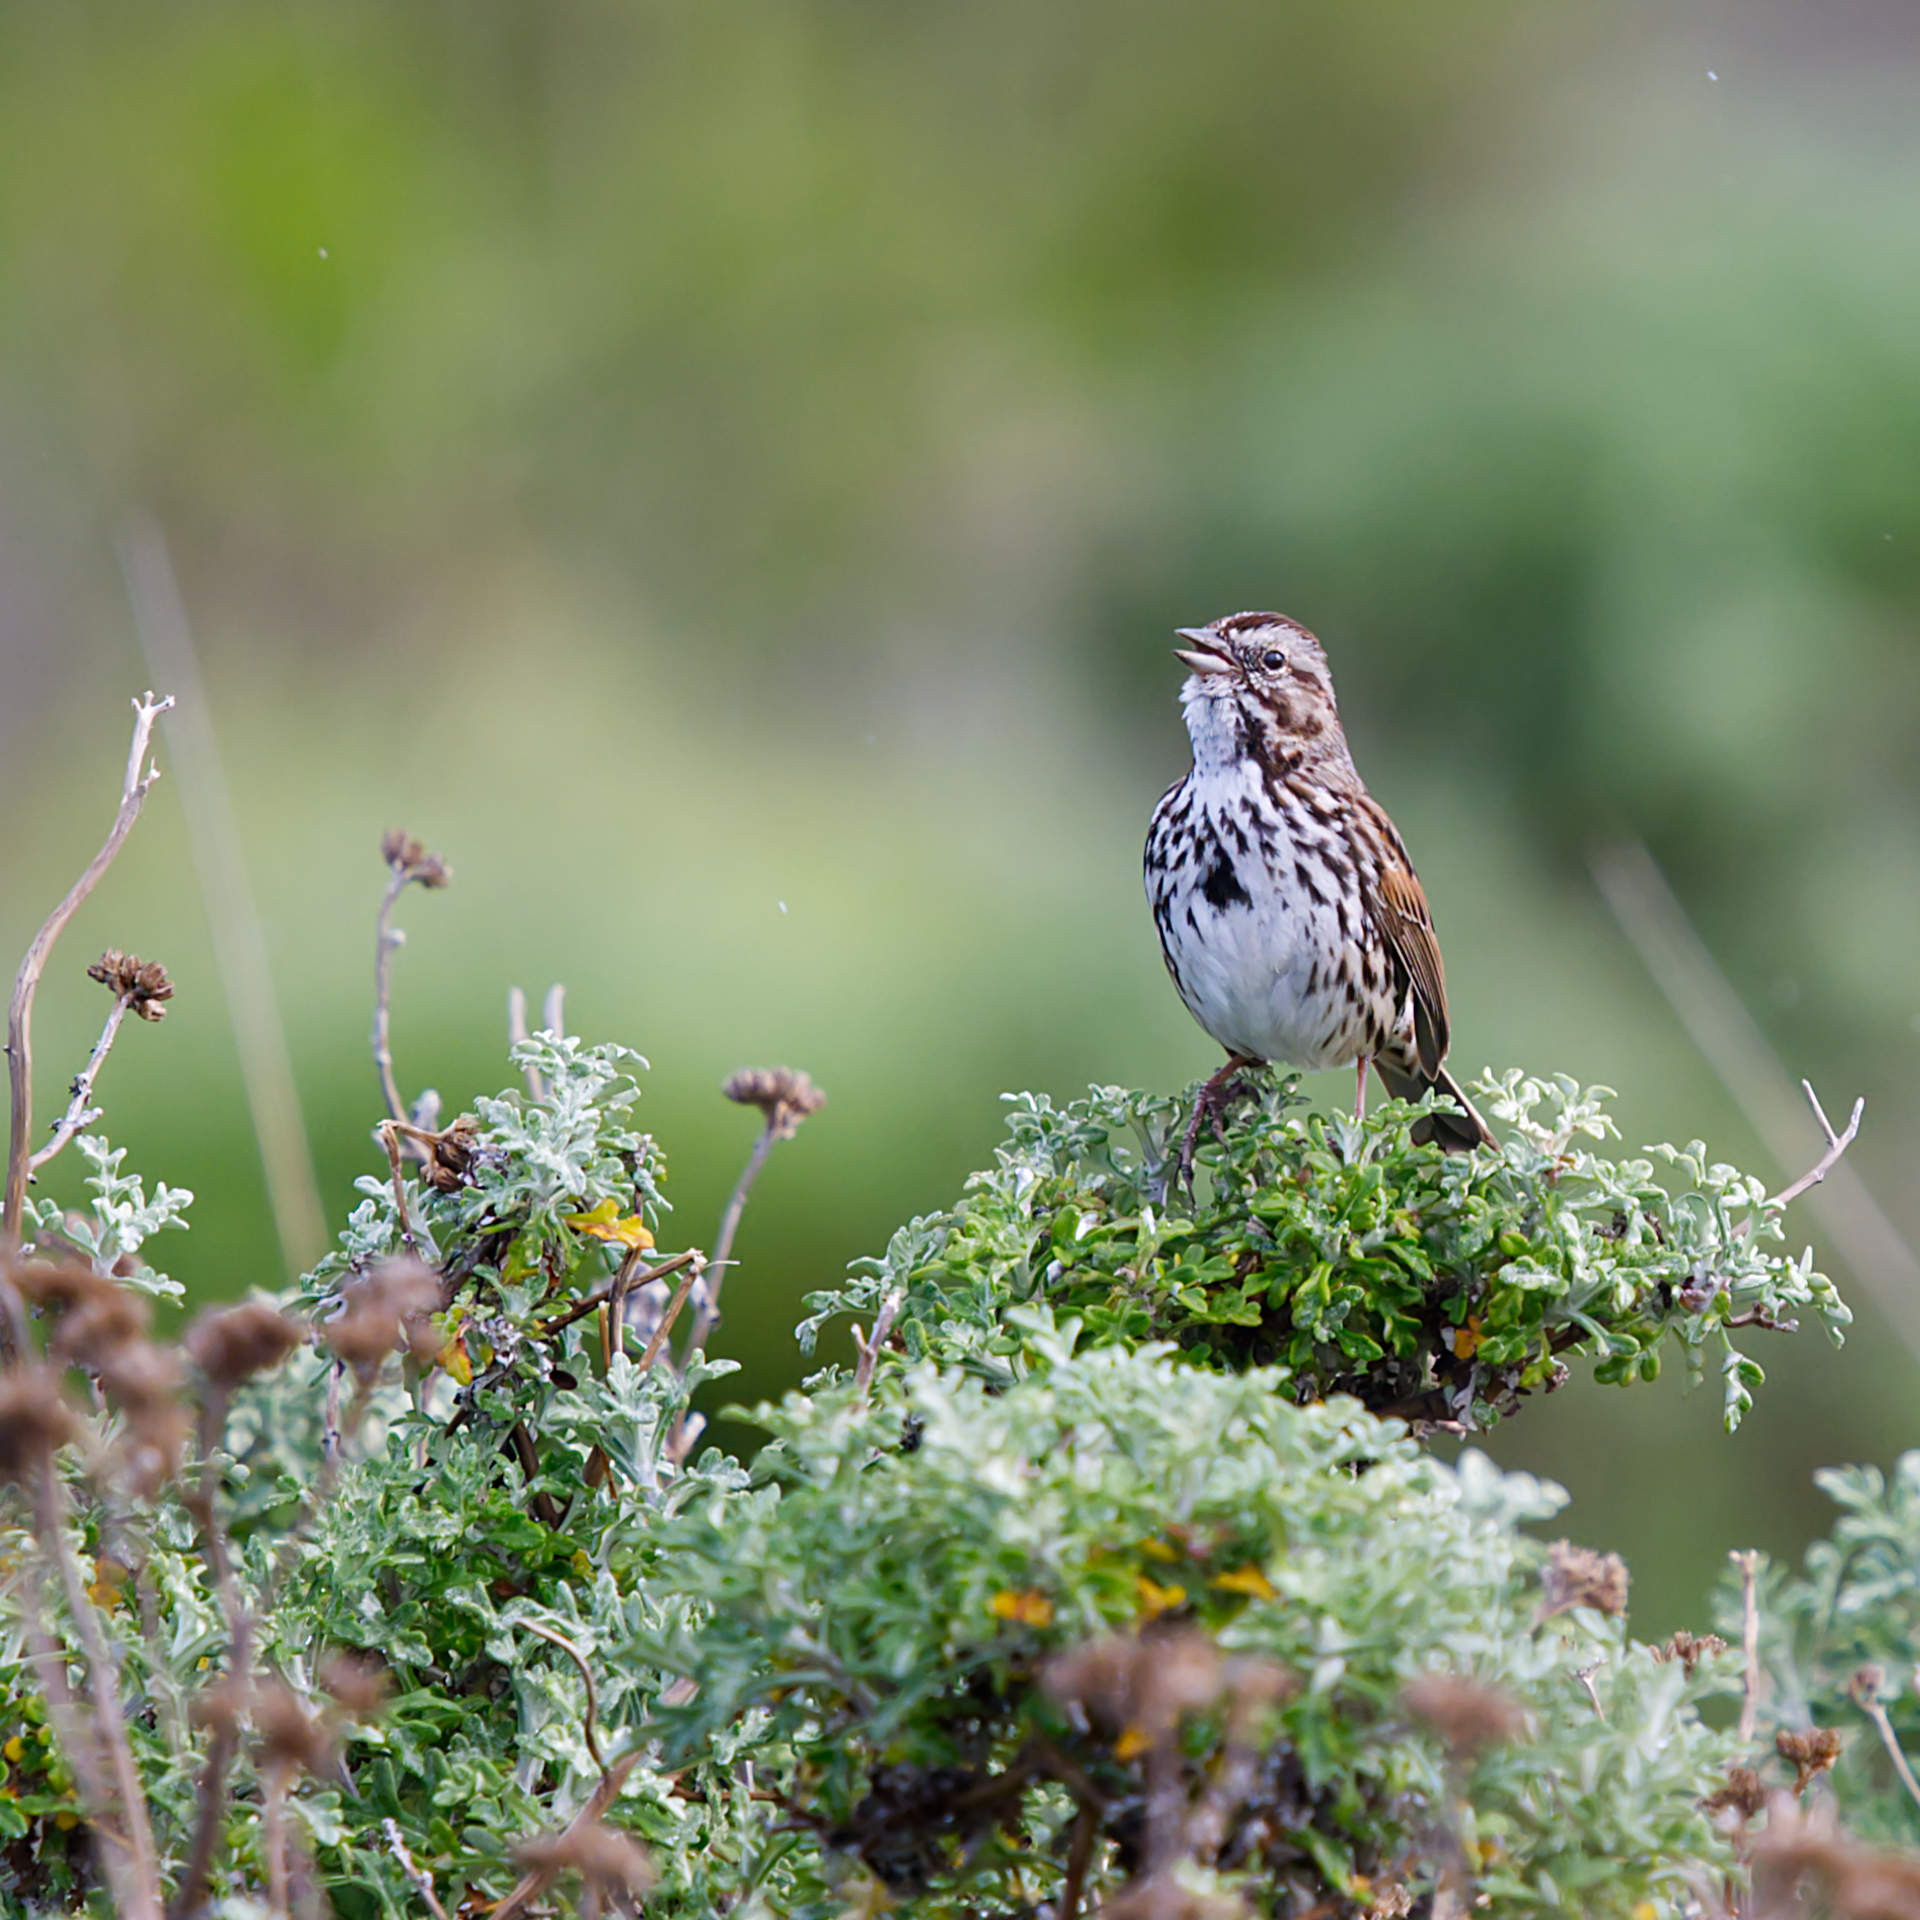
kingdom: Animalia
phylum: Chordata
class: Aves
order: Passeriformes
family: Passerellidae
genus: Melospiza
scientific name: Melospiza melodia
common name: Song sparrow
